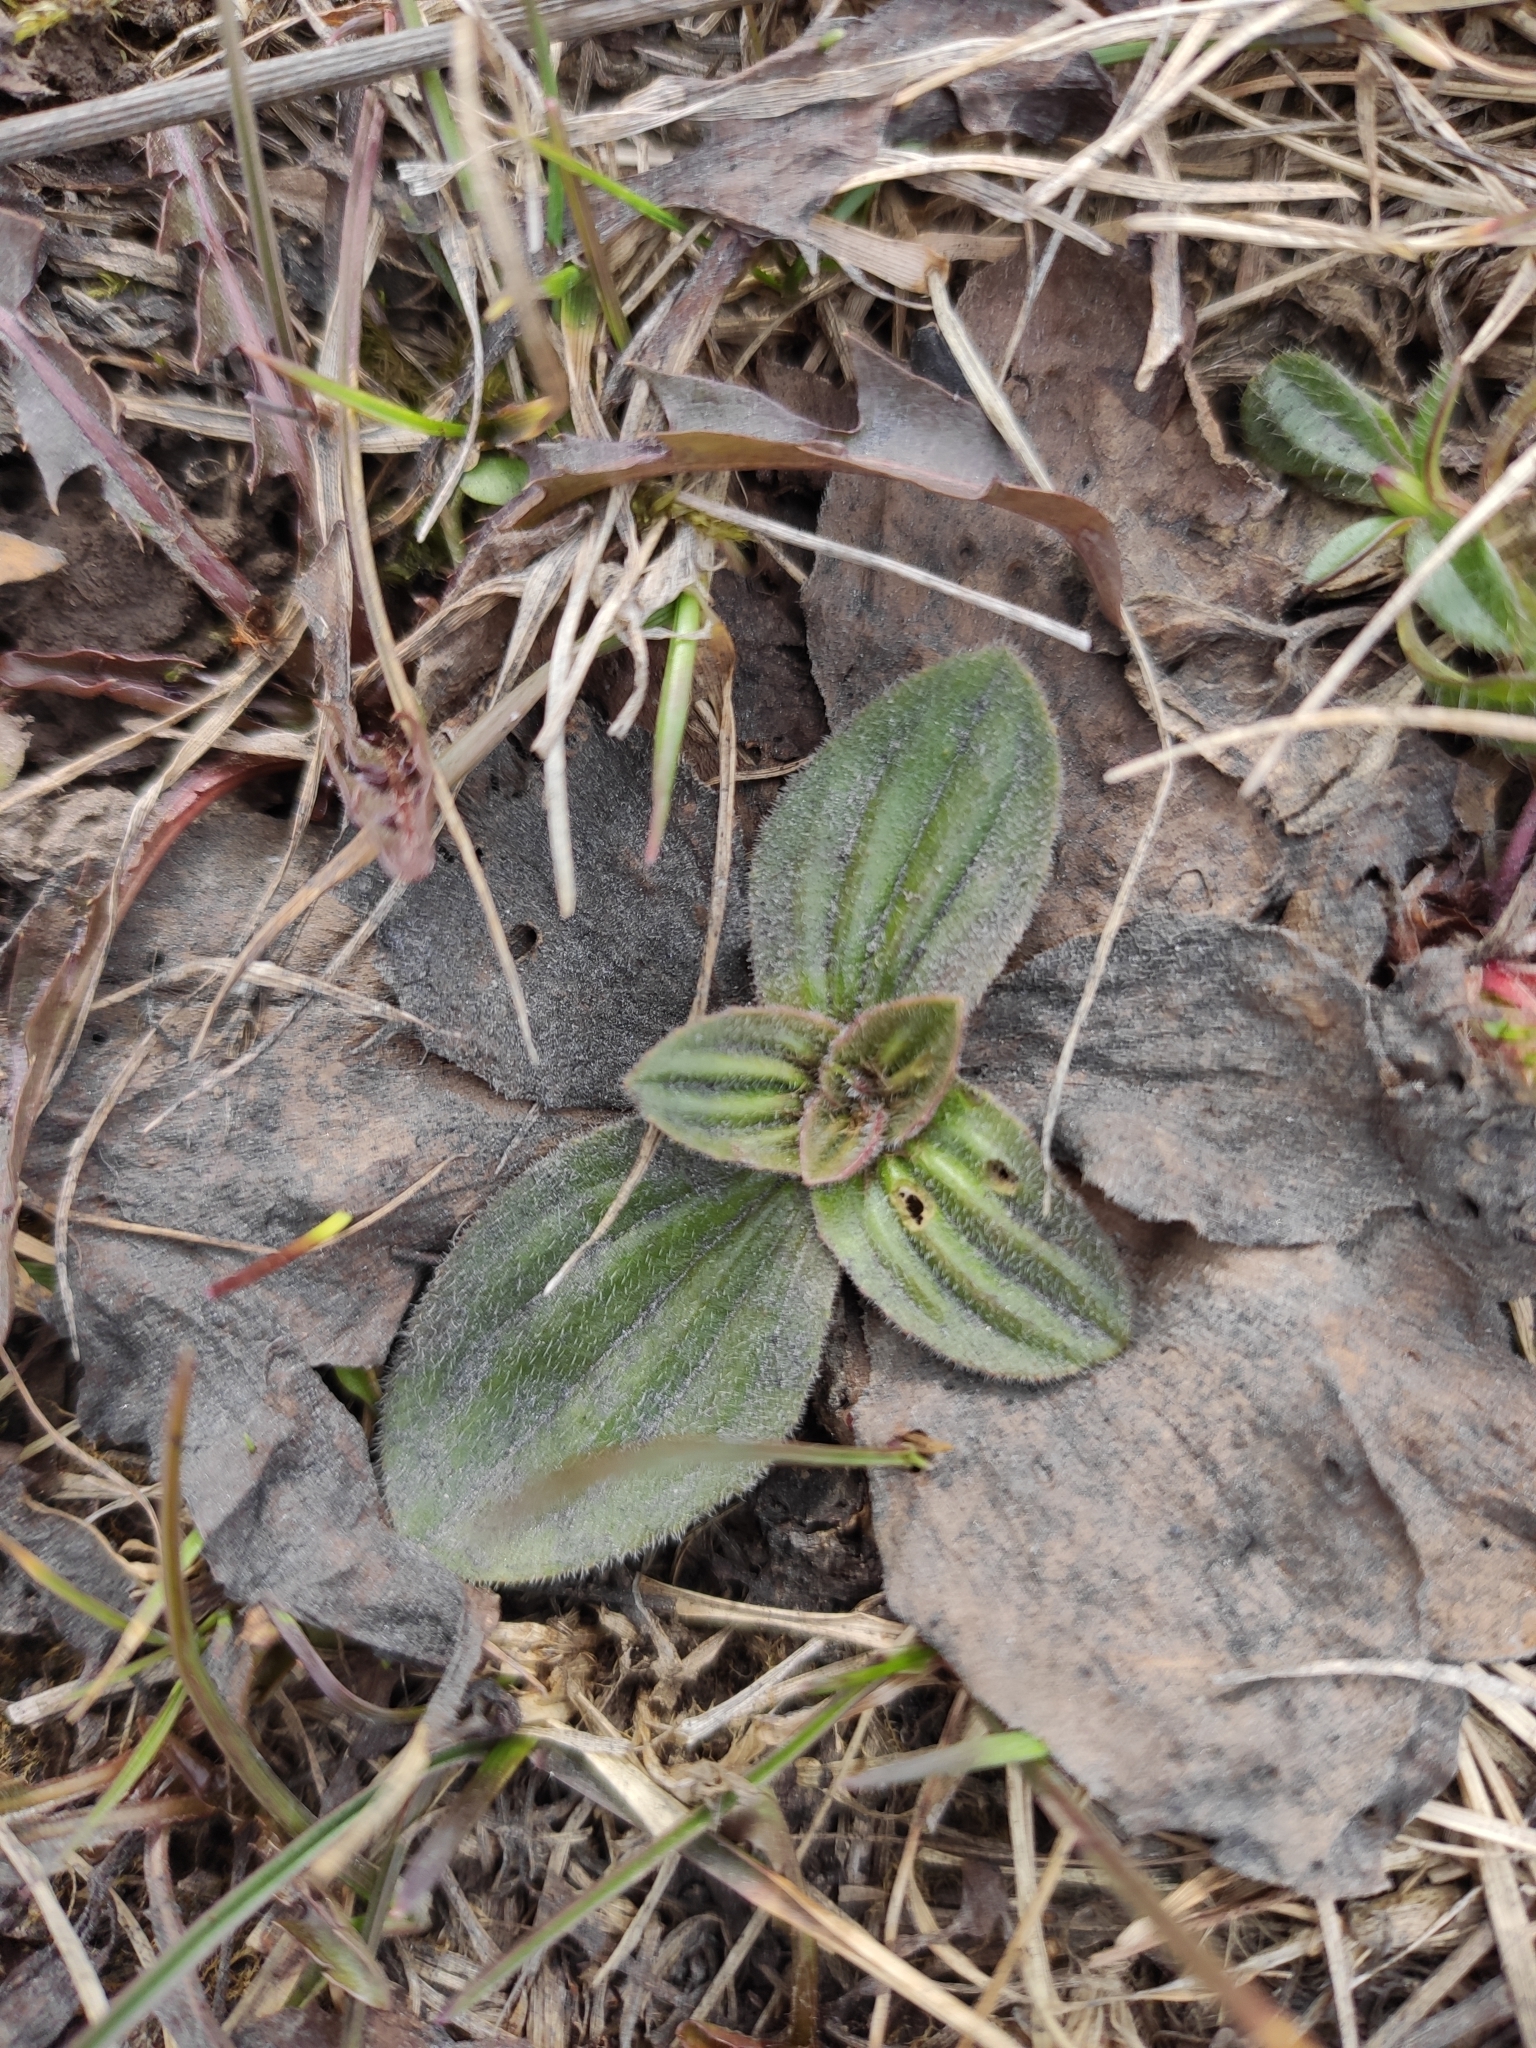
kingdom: Plantae
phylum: Tracheophyta
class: Magnoliopsida
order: Lamiales
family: Plantaginaceae
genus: Plantago
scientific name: Plantago media
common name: Hoary plantain
